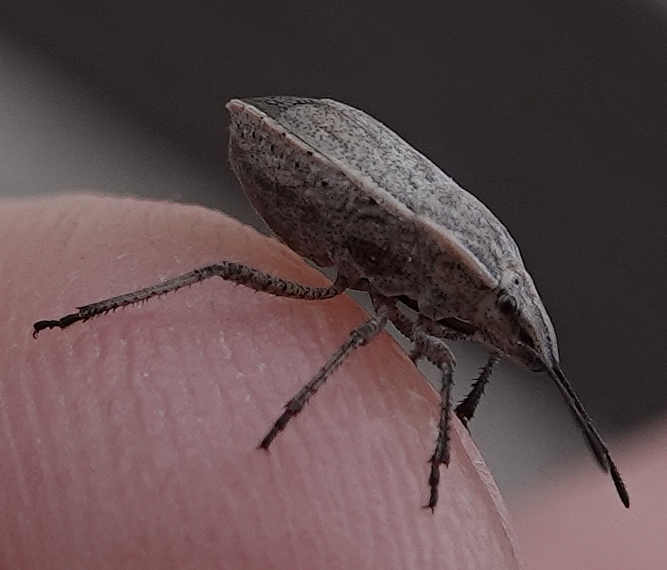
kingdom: Animalia
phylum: Arthropoda
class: Insecta
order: Hemiptera
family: Pentatomidae
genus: Coenus
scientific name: Coenus delius
